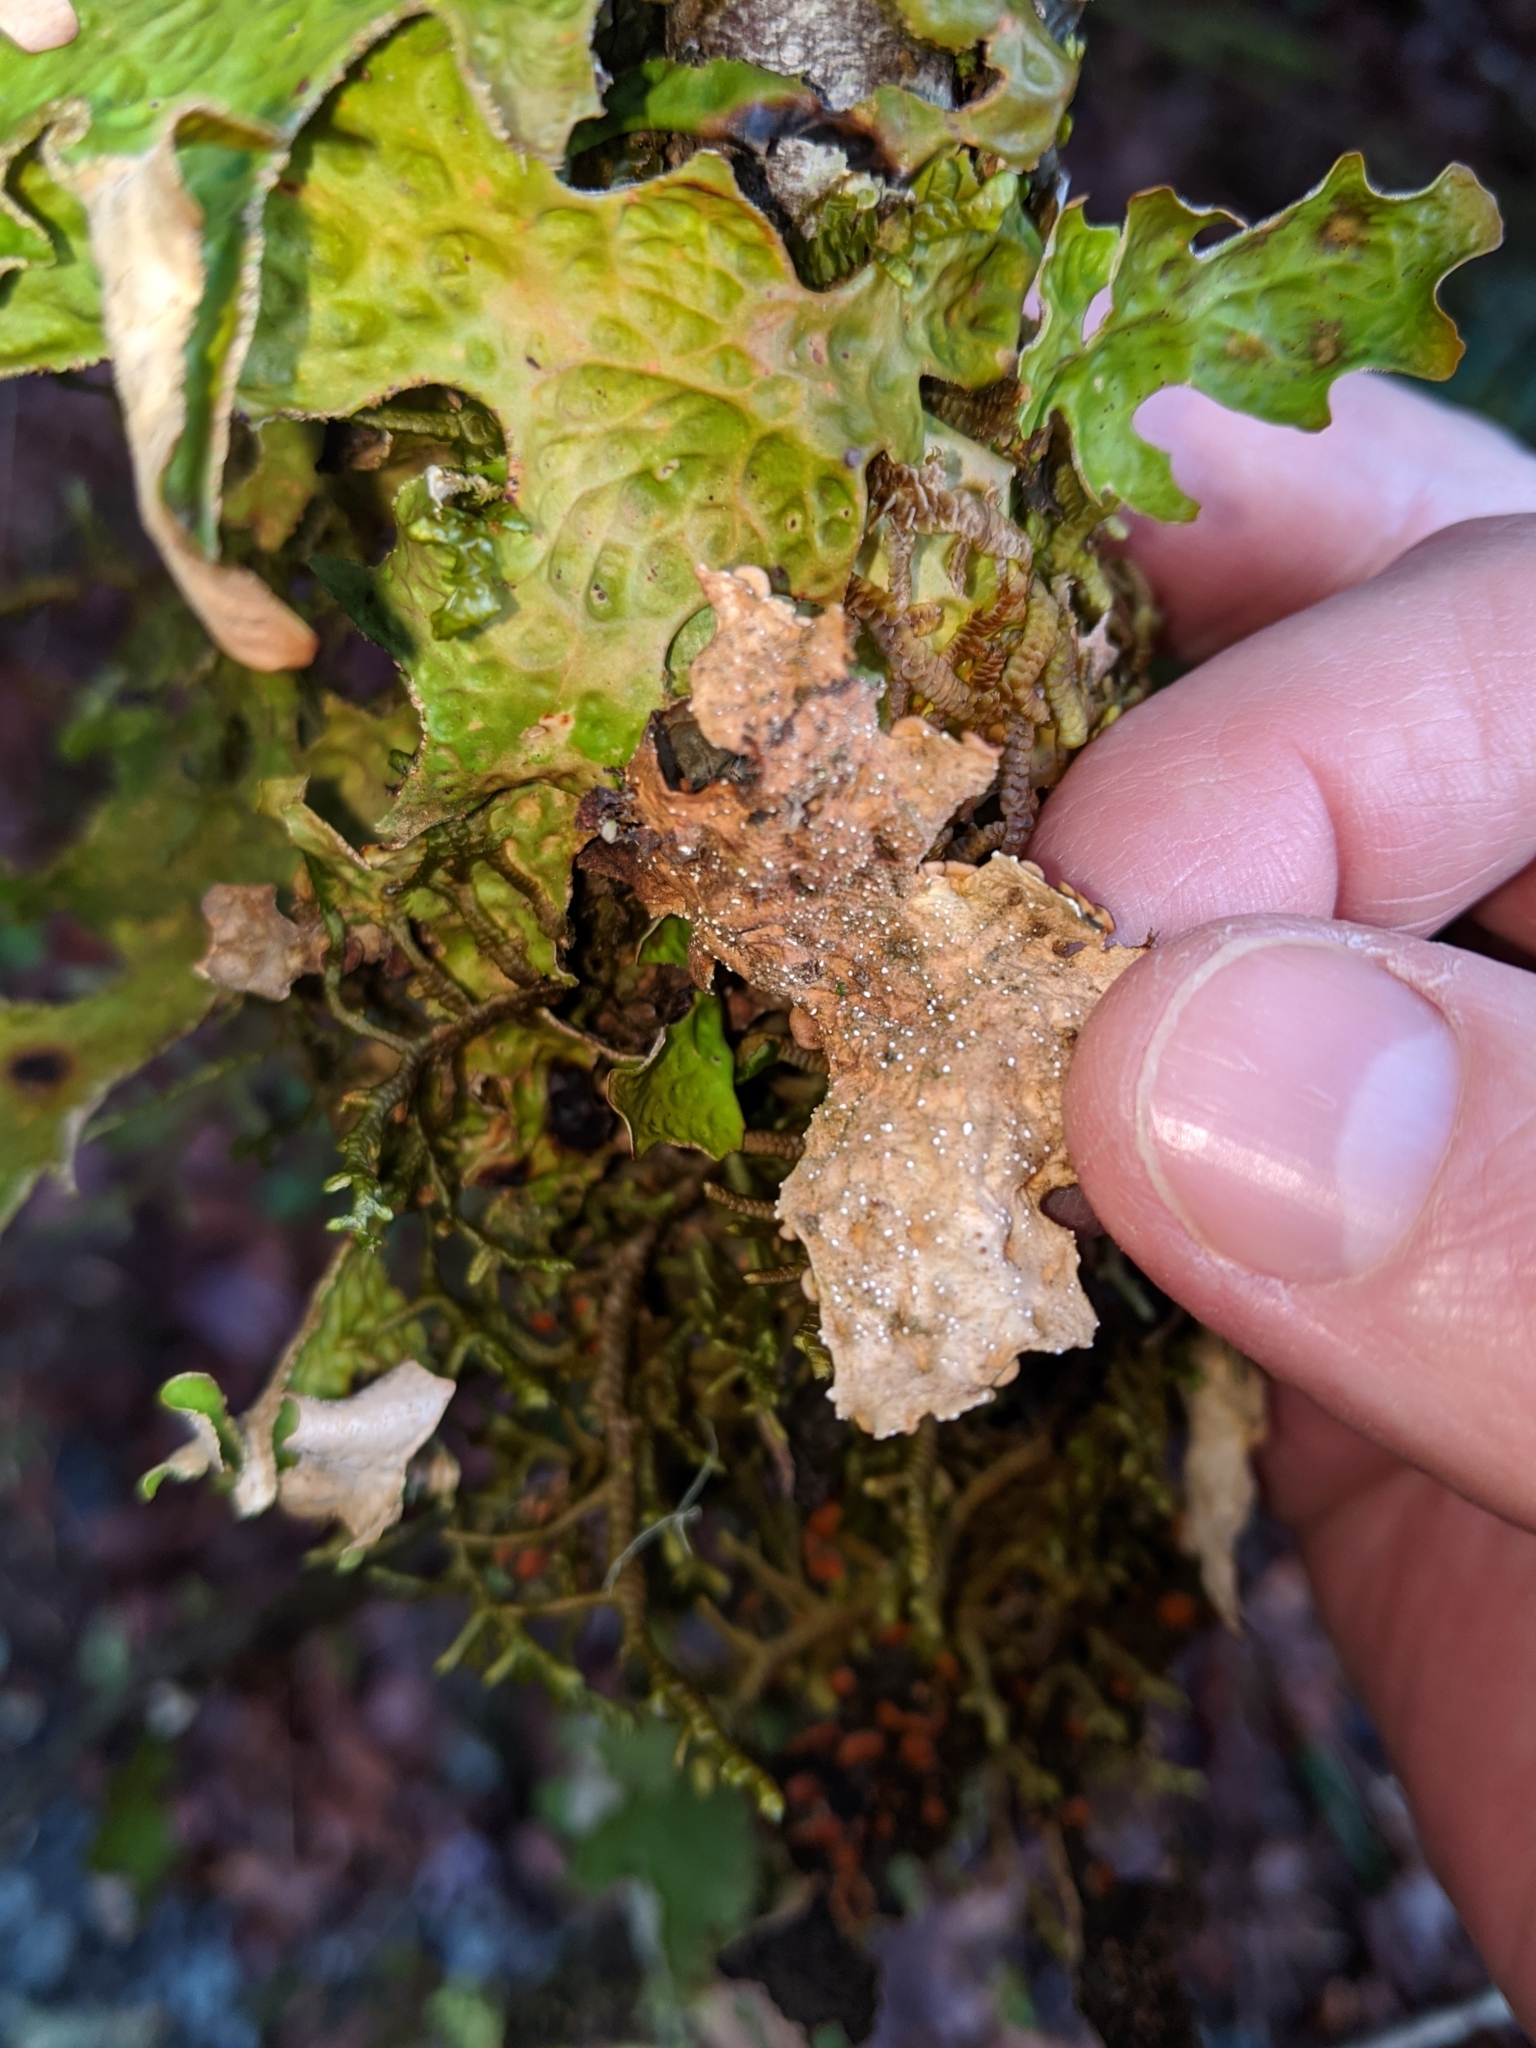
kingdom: Fungi
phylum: Ascomycota
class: Lecanoromycetes
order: Peltigerales
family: Lobariaceae
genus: Lobaria
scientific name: Lobaria anthraspis
